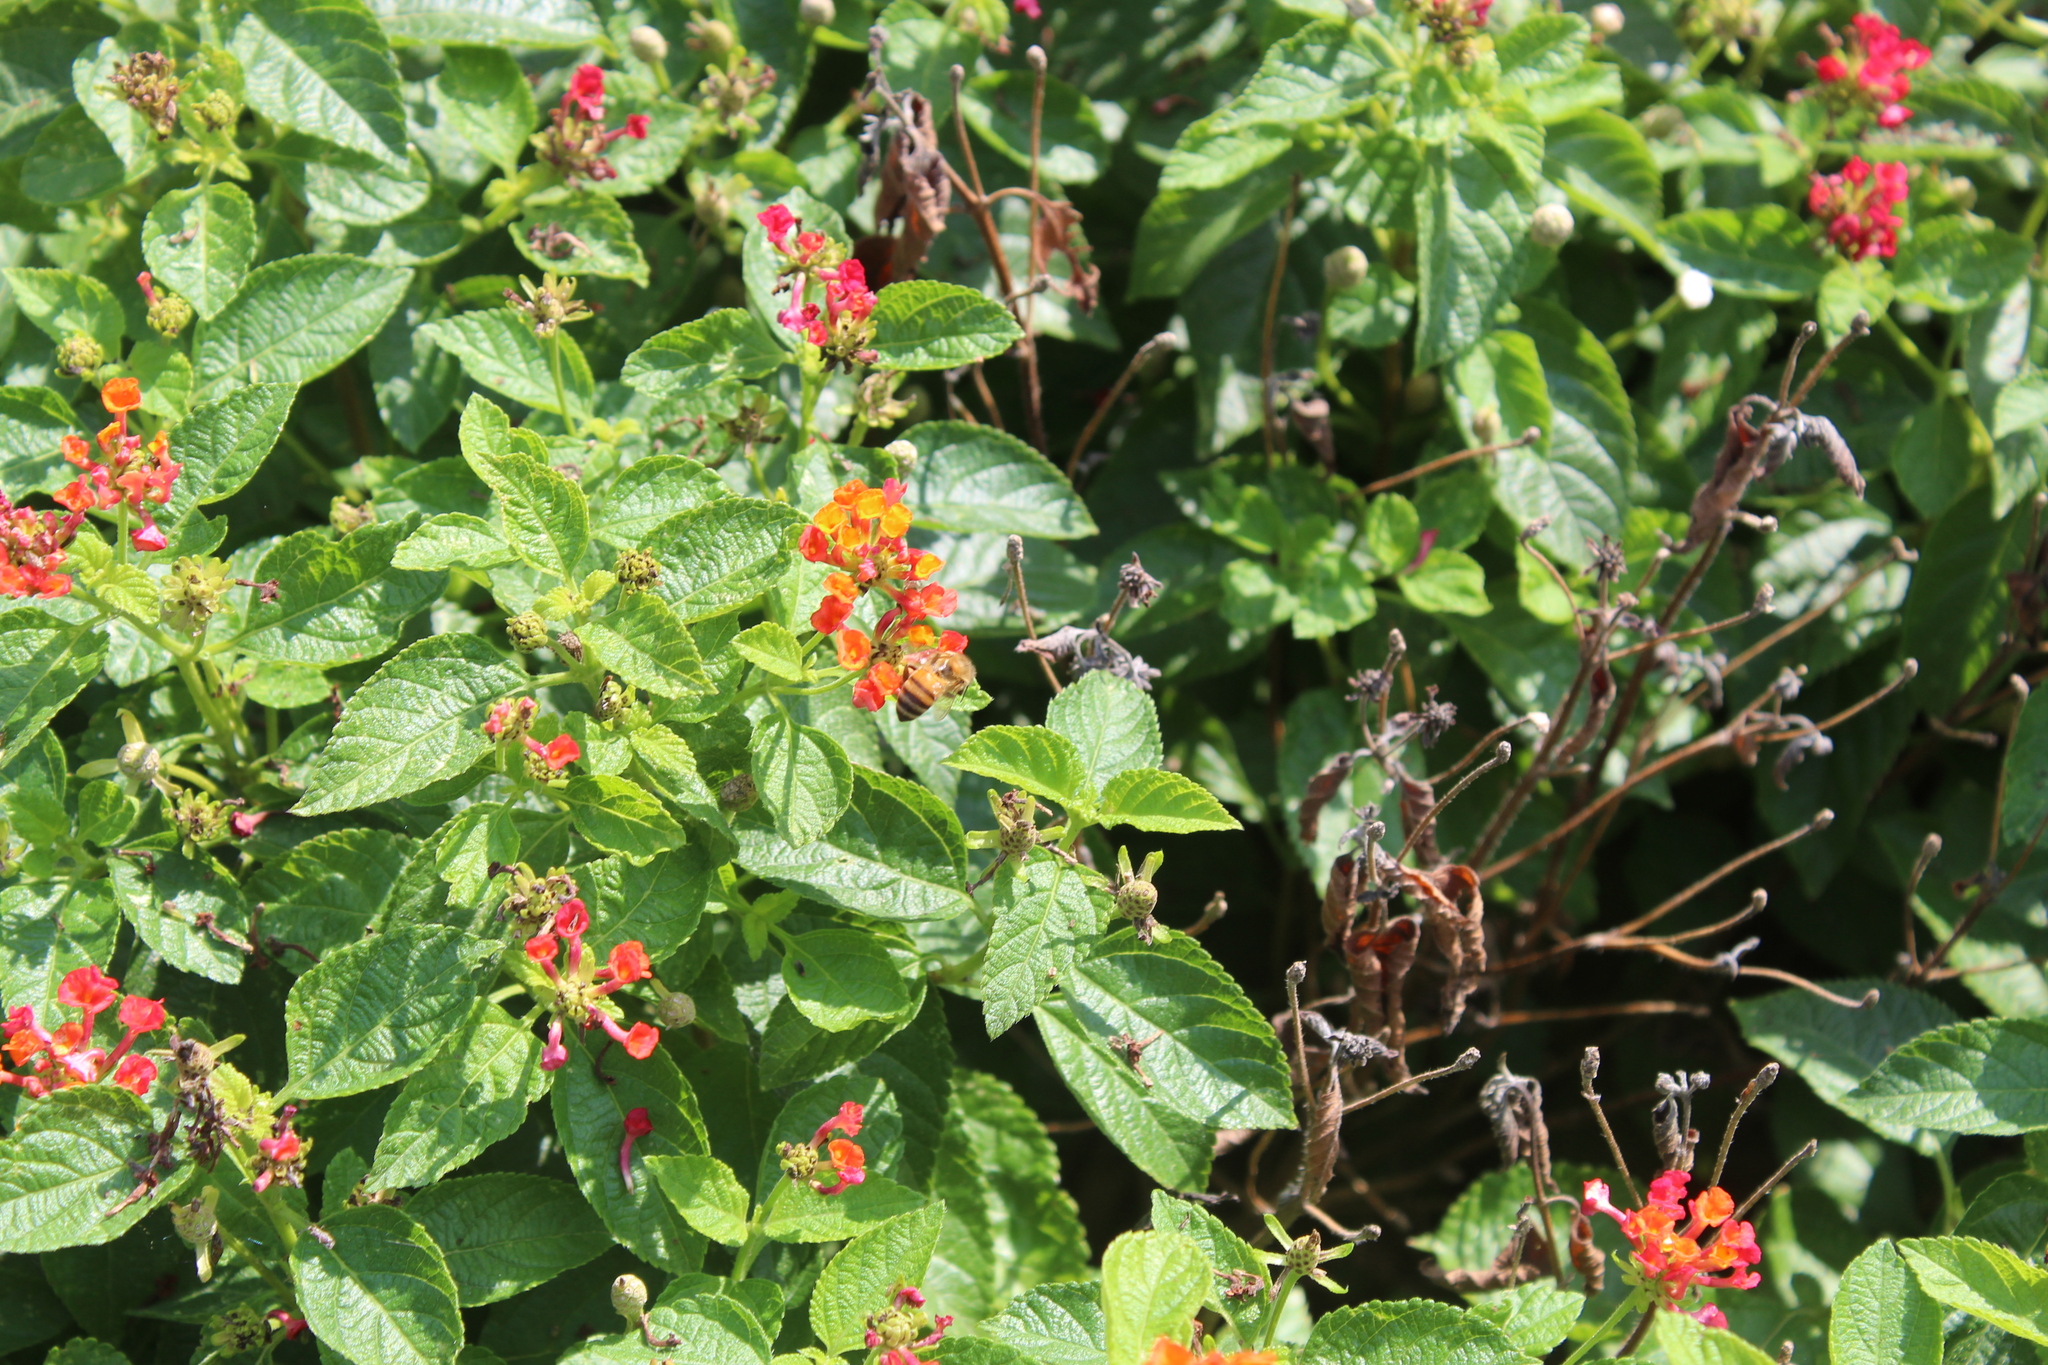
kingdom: Animalia
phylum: Arthropoda
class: Insecta
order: Hymenoptera
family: Apidae
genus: Apis
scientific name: Apis mellifera
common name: Honey bee
